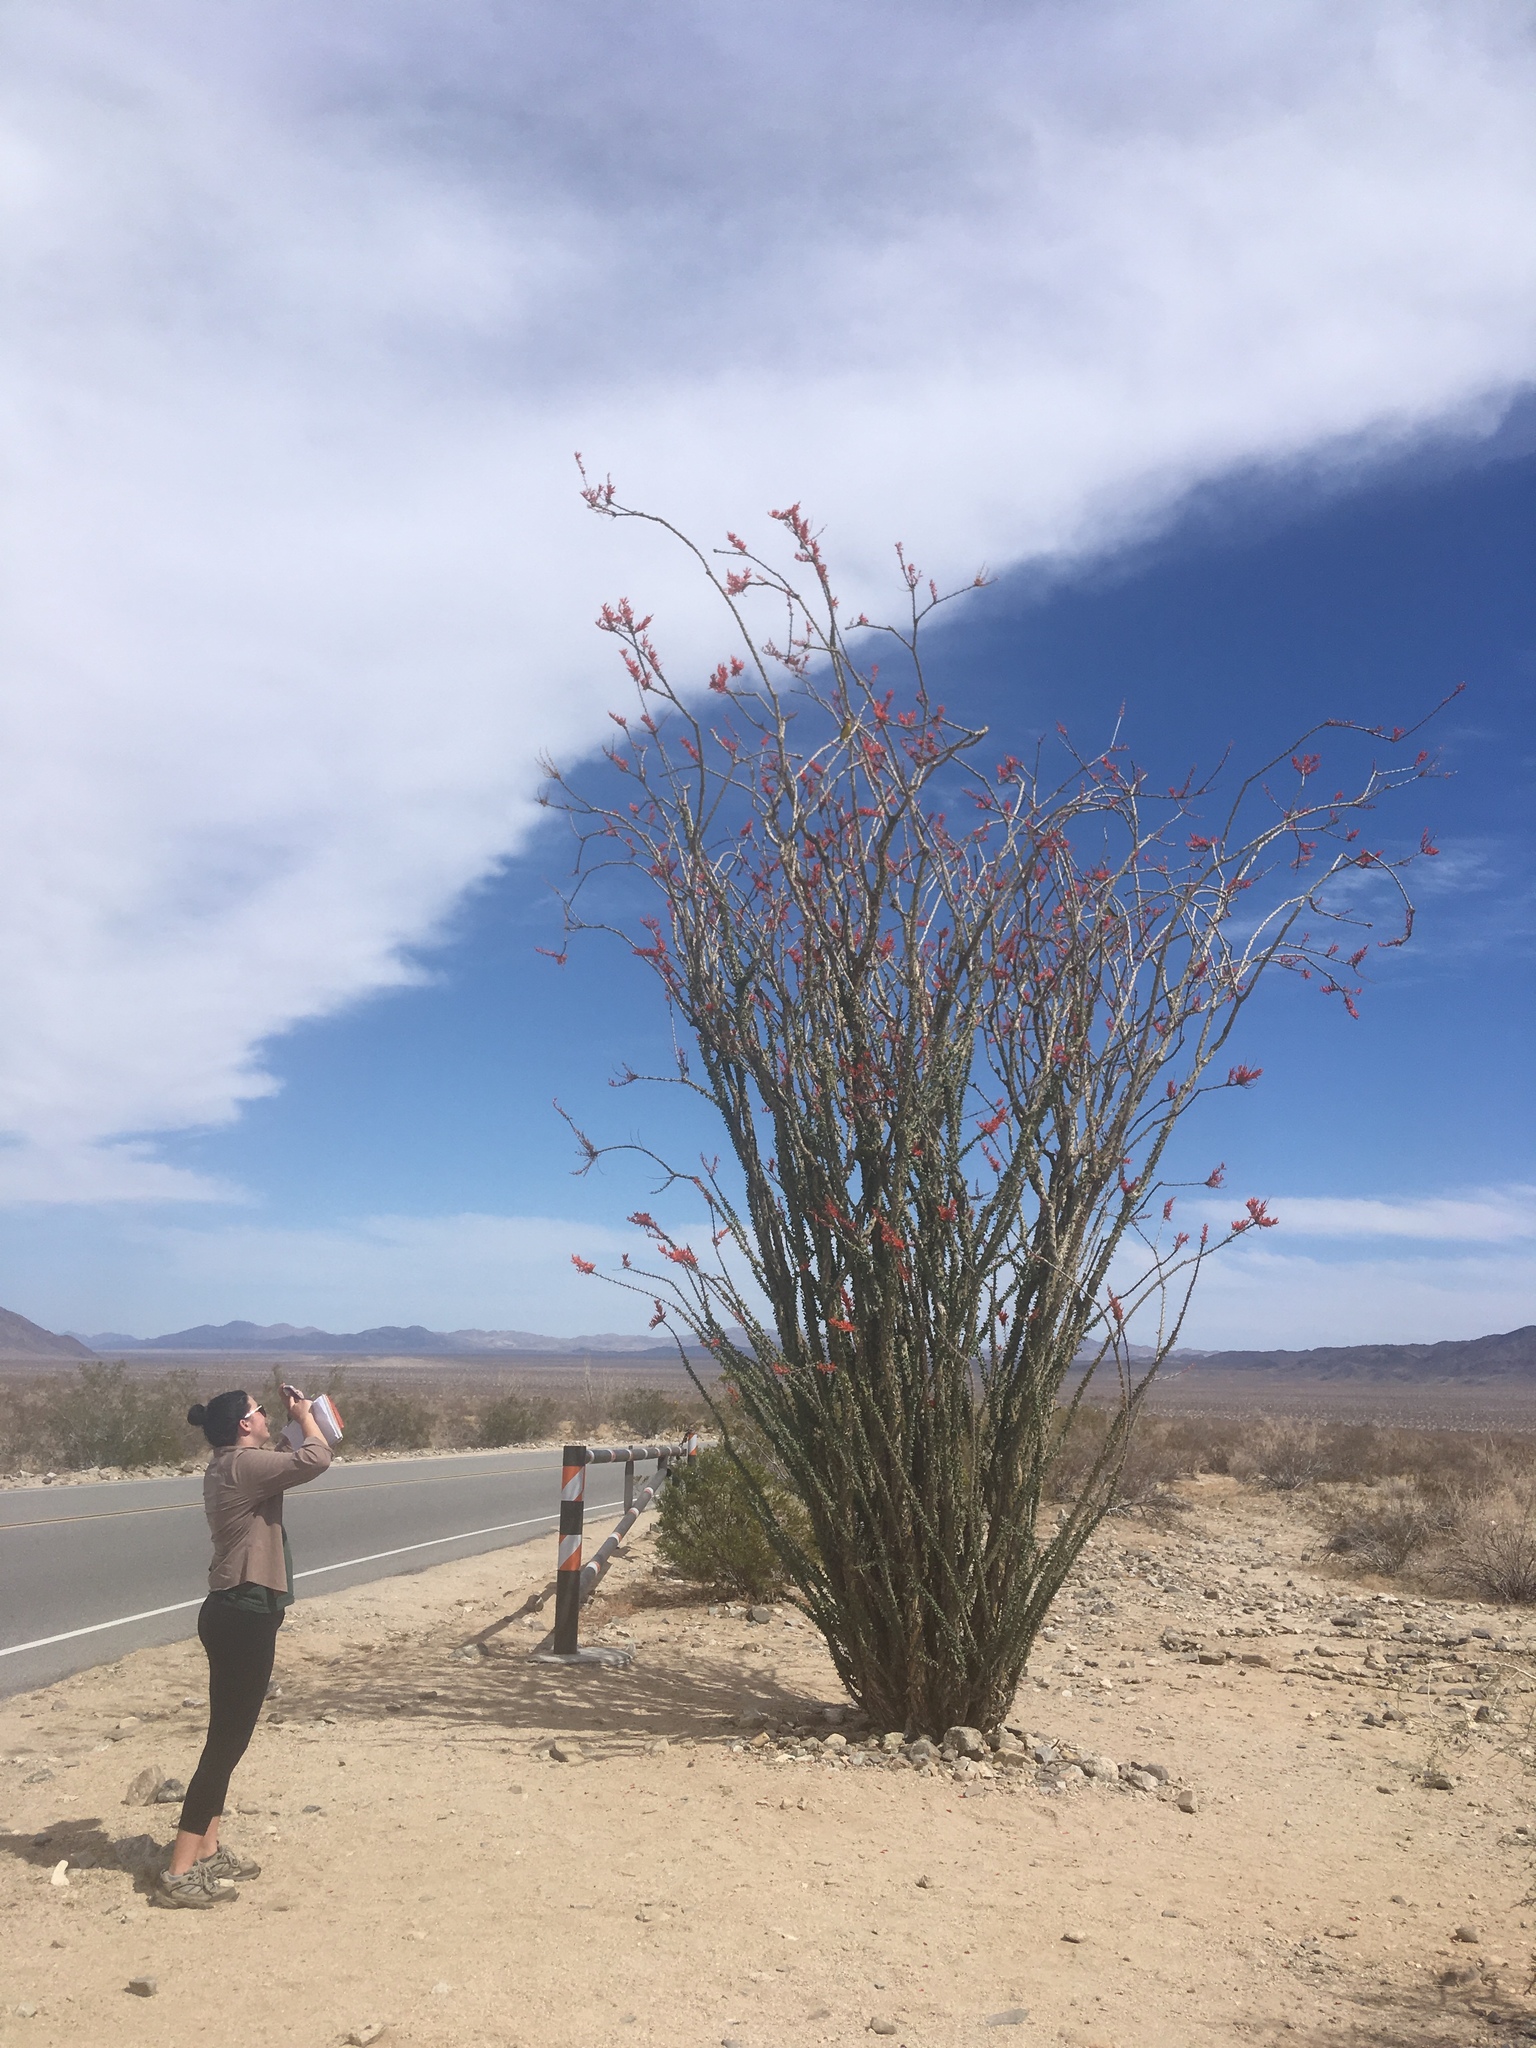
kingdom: Plantae
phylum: Tracheophyta
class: Magnoliopsida
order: Ericales
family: Fouquieriaceae
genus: Fouquieria
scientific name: Fouquieria splendens
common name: Vine-cactus
